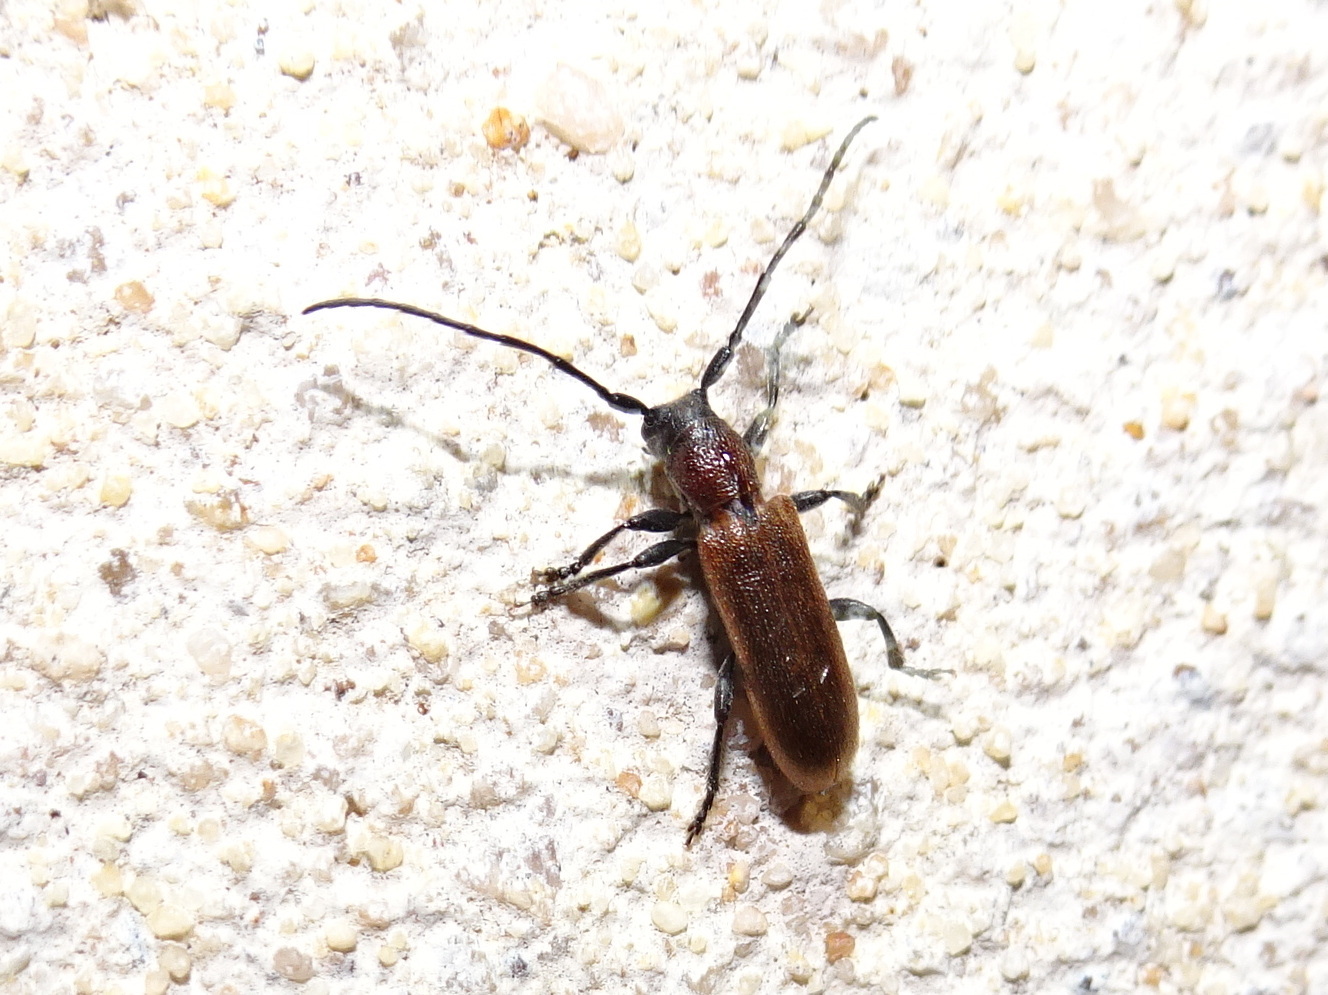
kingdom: Animalia
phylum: Arthropoda
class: Insecta
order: Coleoptera
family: Cerambycidae
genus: Anaesthetis
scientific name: Anaesthetis testacea
